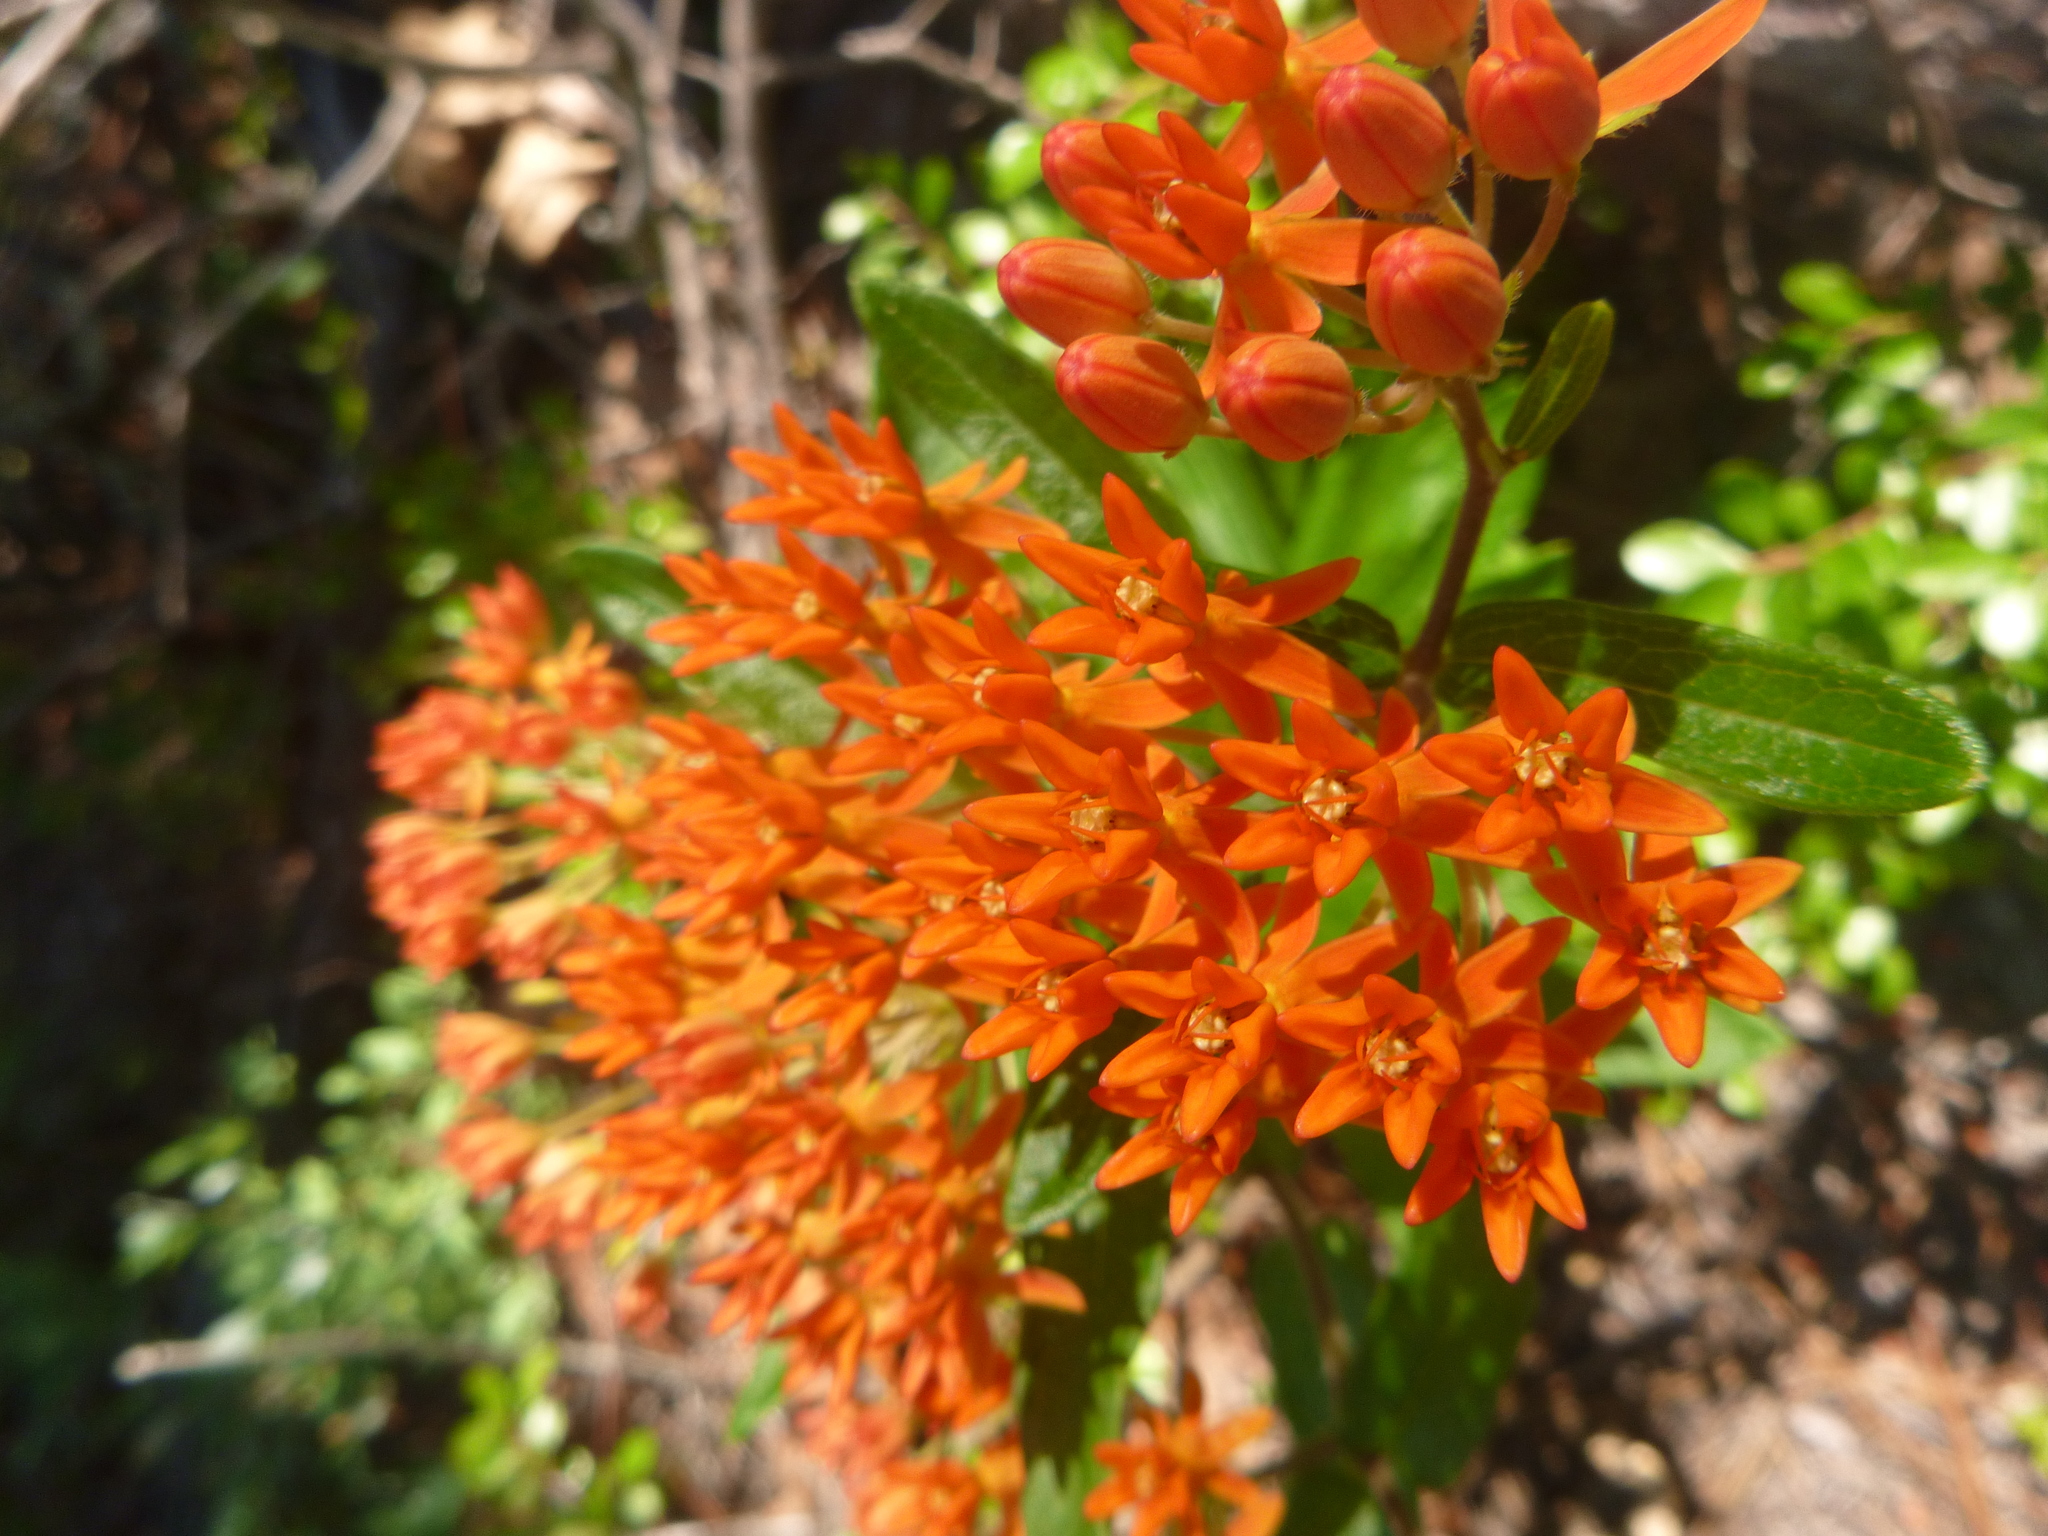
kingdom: Plantae
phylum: Tracheophyta
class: Magnoliopsida
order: Gentianales
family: Apocynaceae
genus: Asclepias
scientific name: Asclepias tuberosa
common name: Butterfly milkweed
